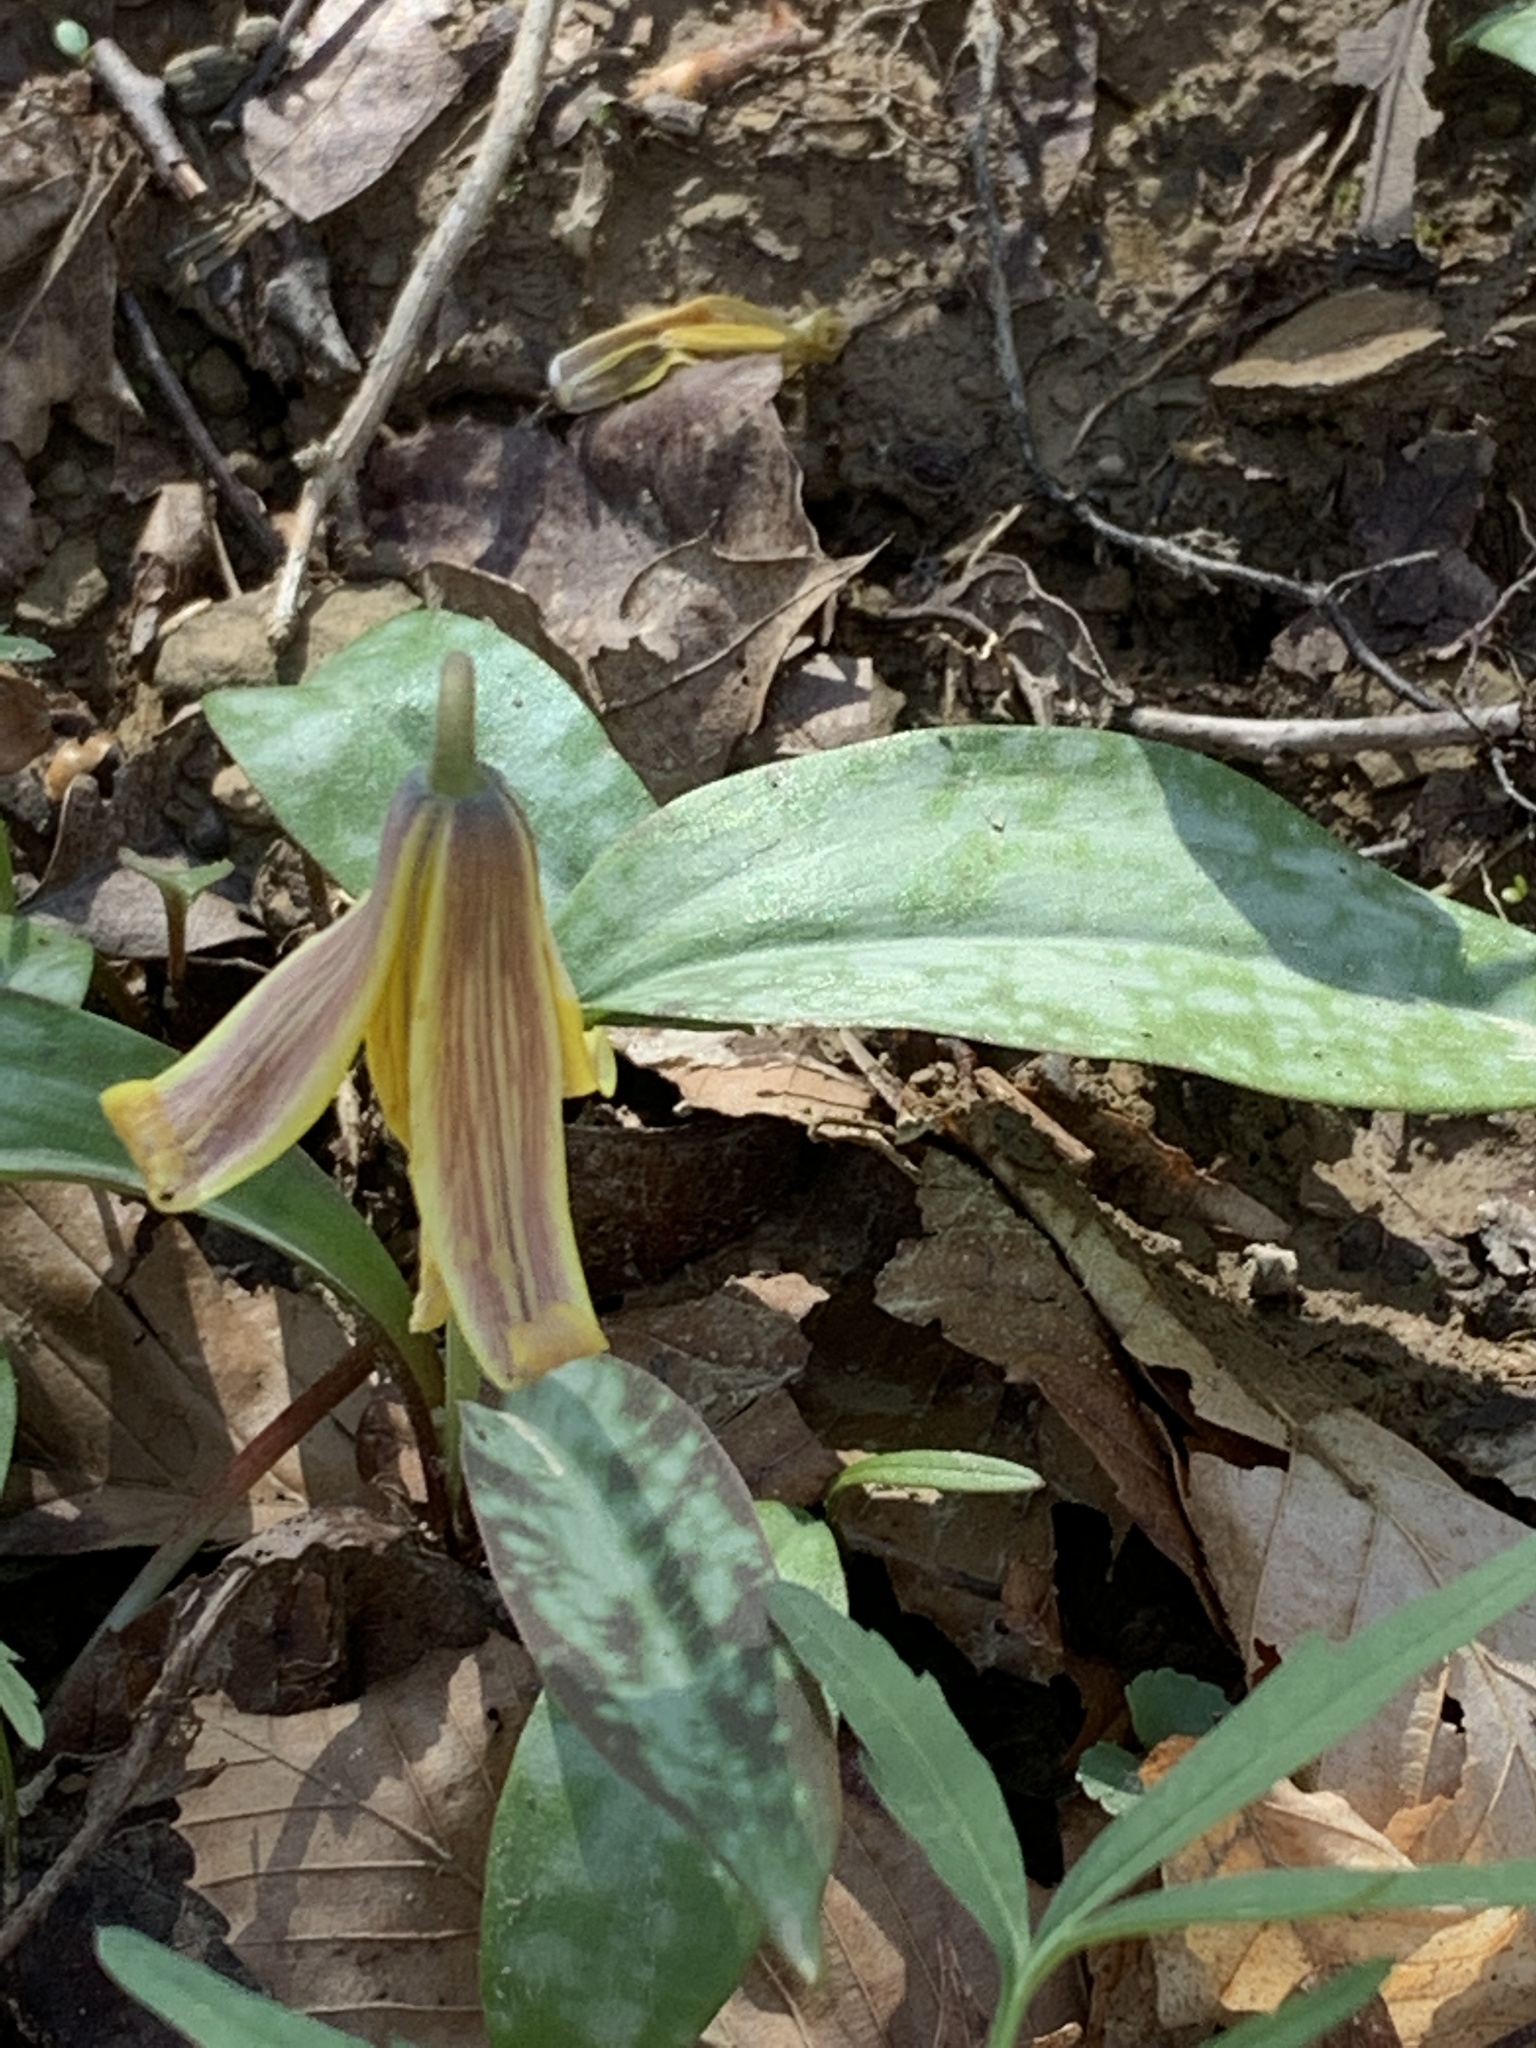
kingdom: Plantae
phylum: Tracheophyta
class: Liliopsida
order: Liliales
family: Liliaceae
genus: Erythronium
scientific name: Erythronium americanum
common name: Yellow adder's-tongue
